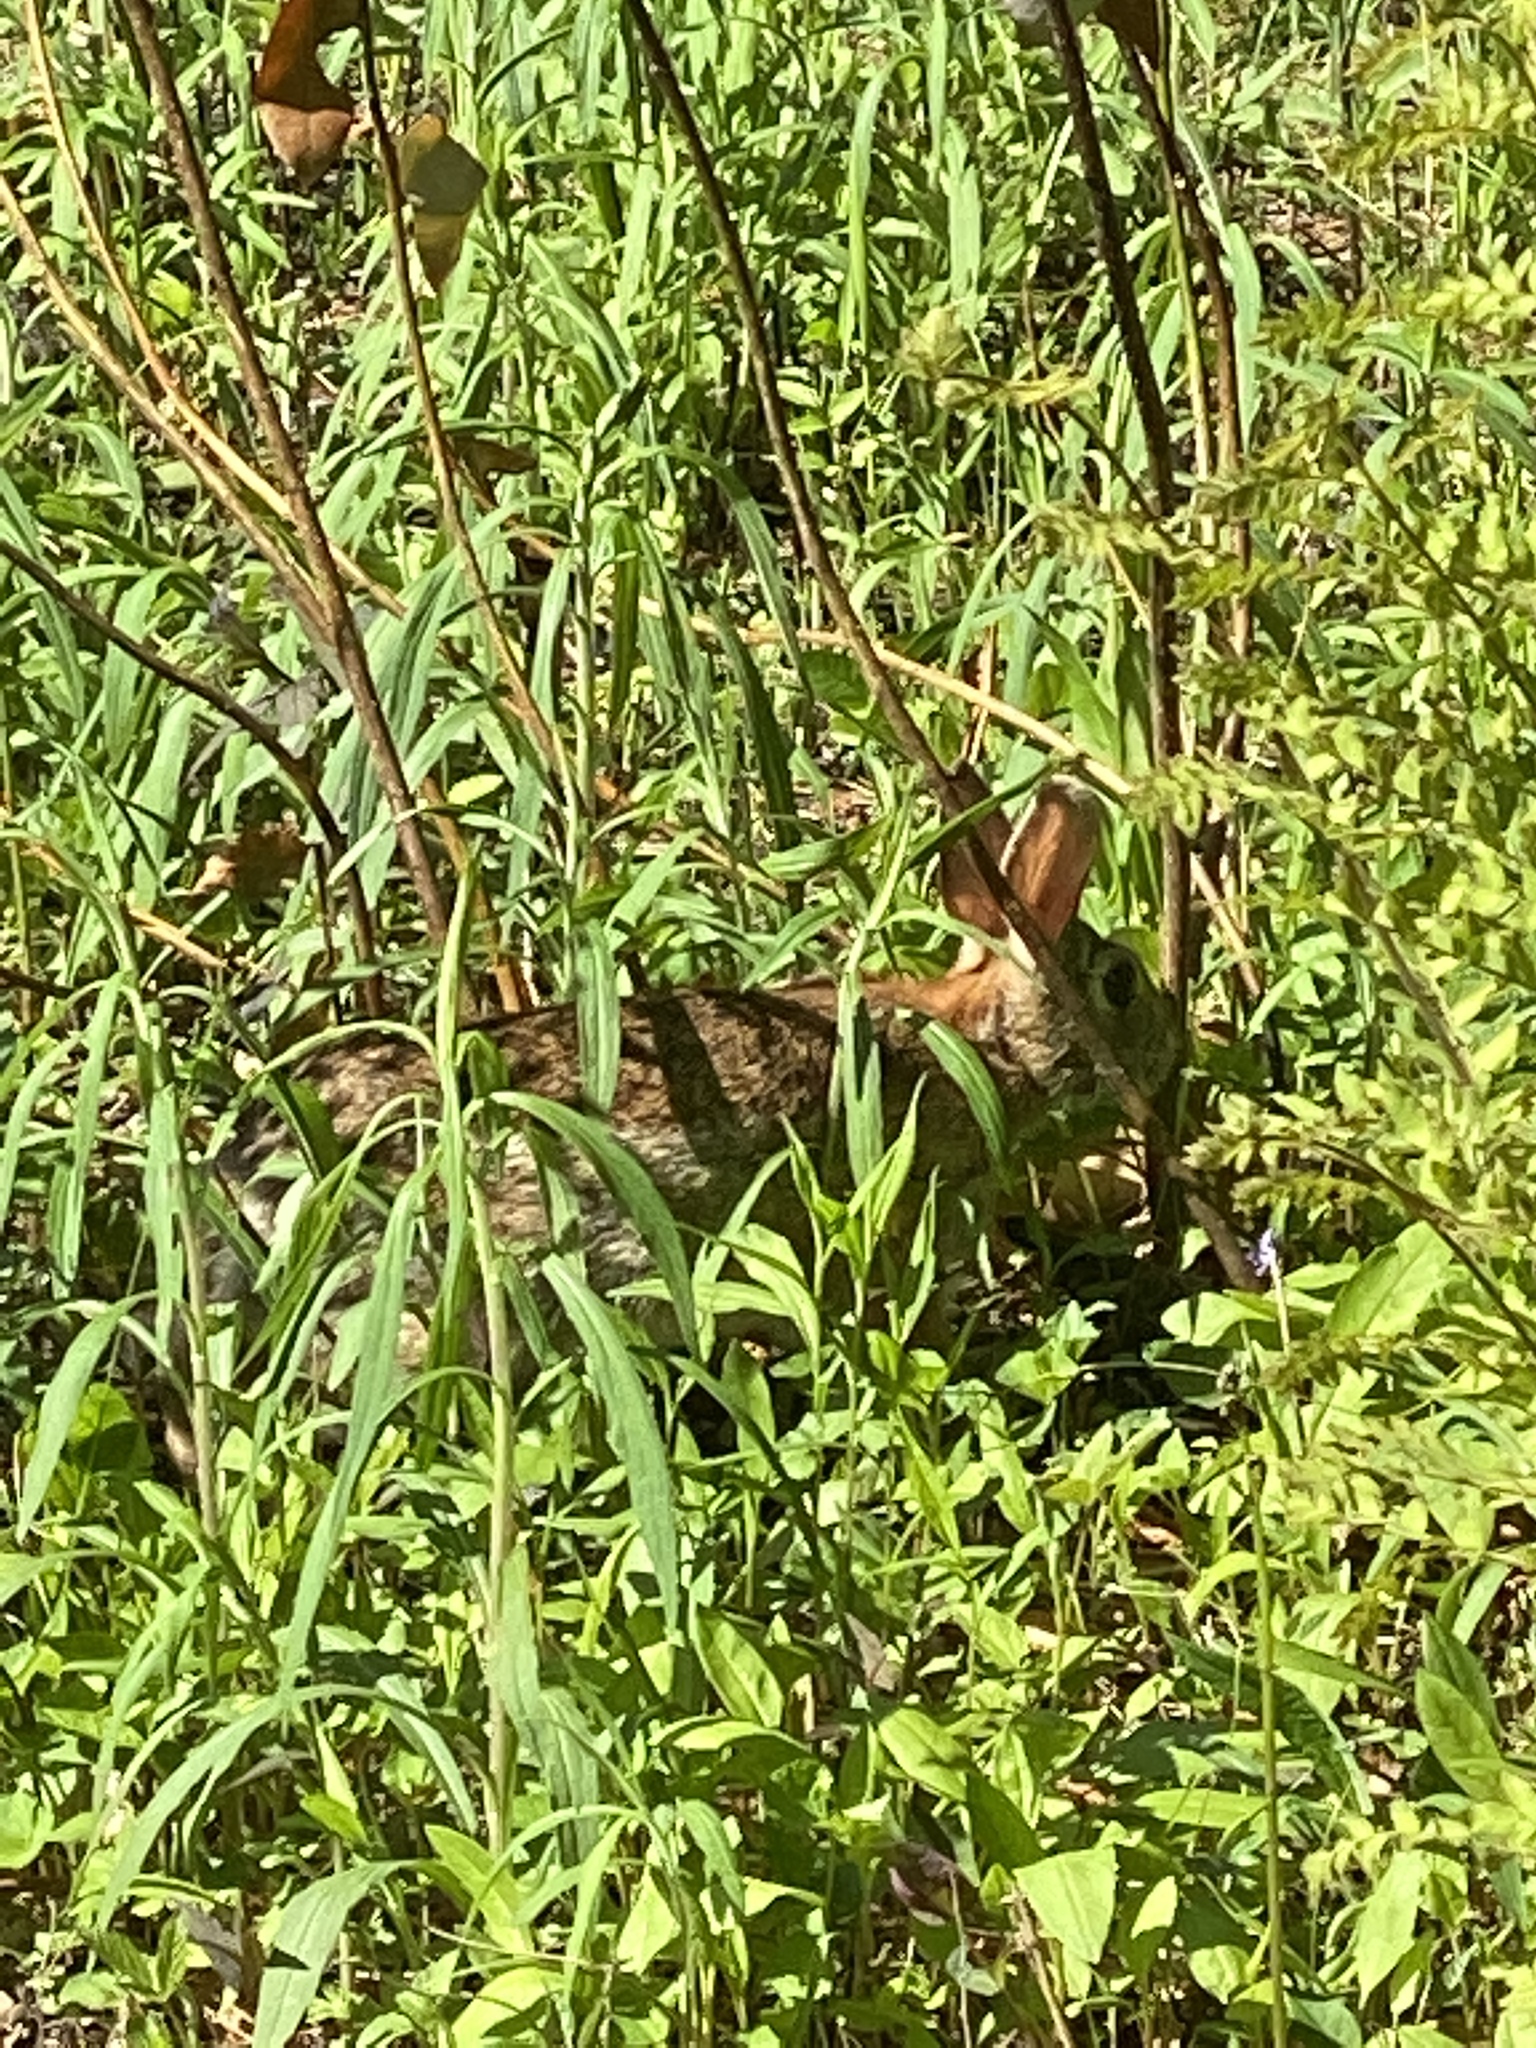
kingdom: Animalia
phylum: Chordata
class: Mammalia
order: Lagomorpha
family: Leporidae
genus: Sylvilagus
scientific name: Sylvilagus floridanus
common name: Eastern cottontail
